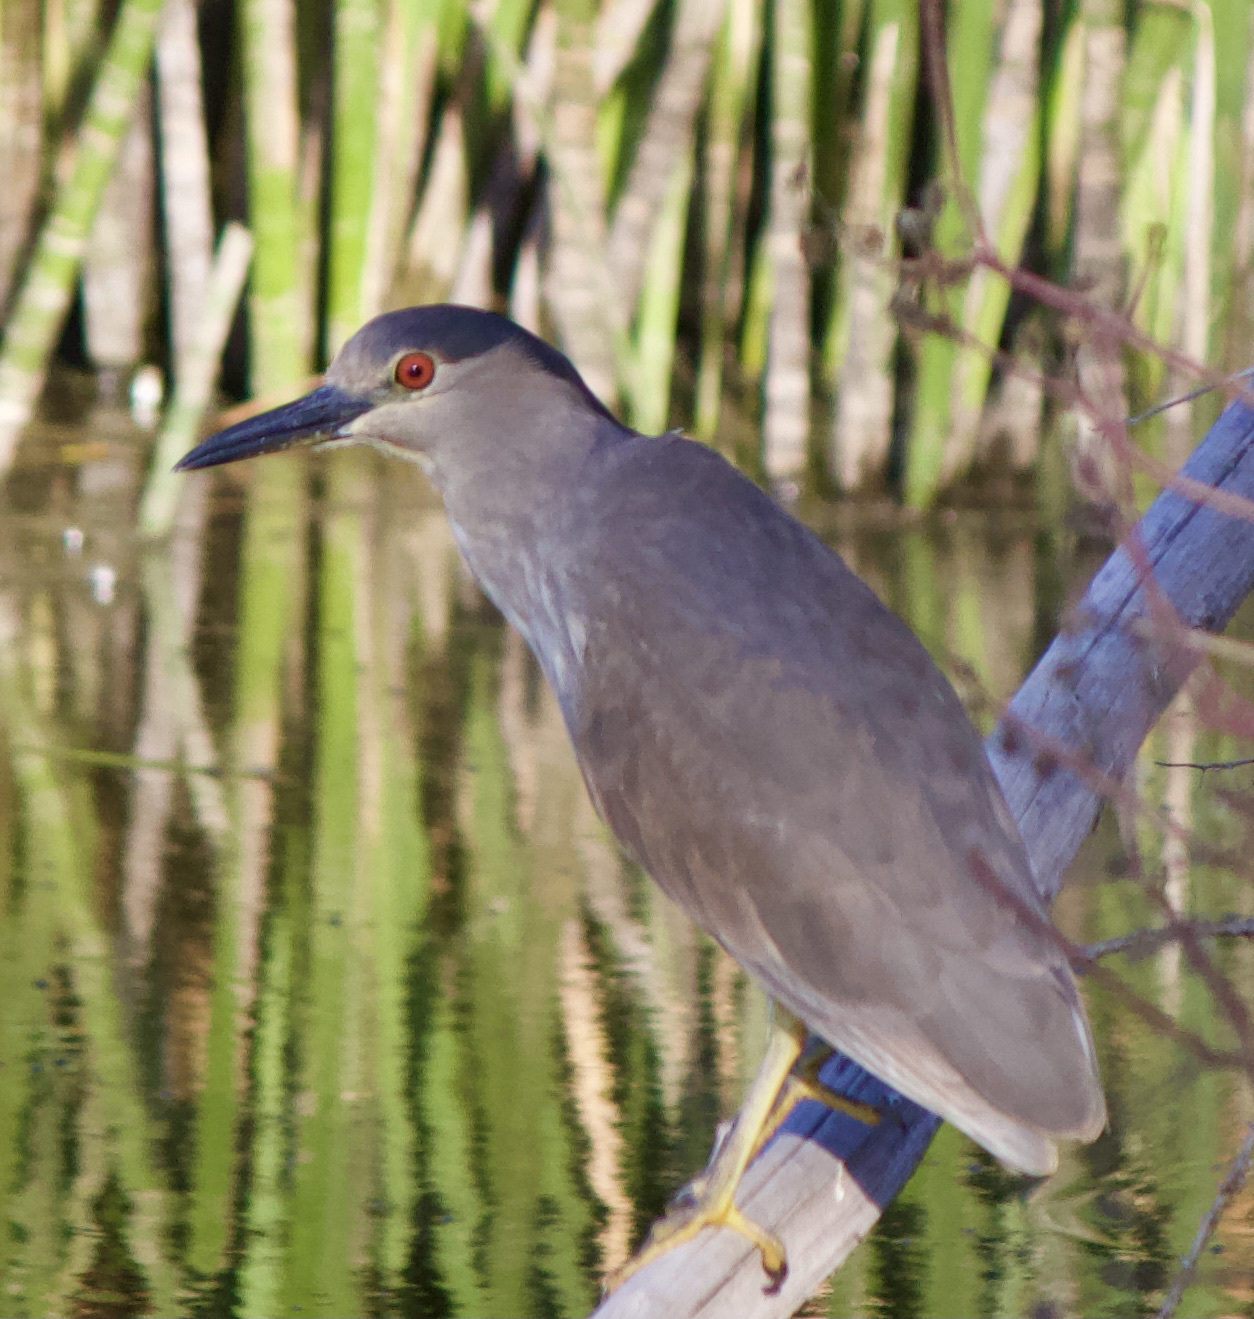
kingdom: Animalia
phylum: Chordata
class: Aves
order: Pelecaniformes
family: Ardeidae
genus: Nycticorax
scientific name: Nycticorax nycticorax
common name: Black-crowned night heron
